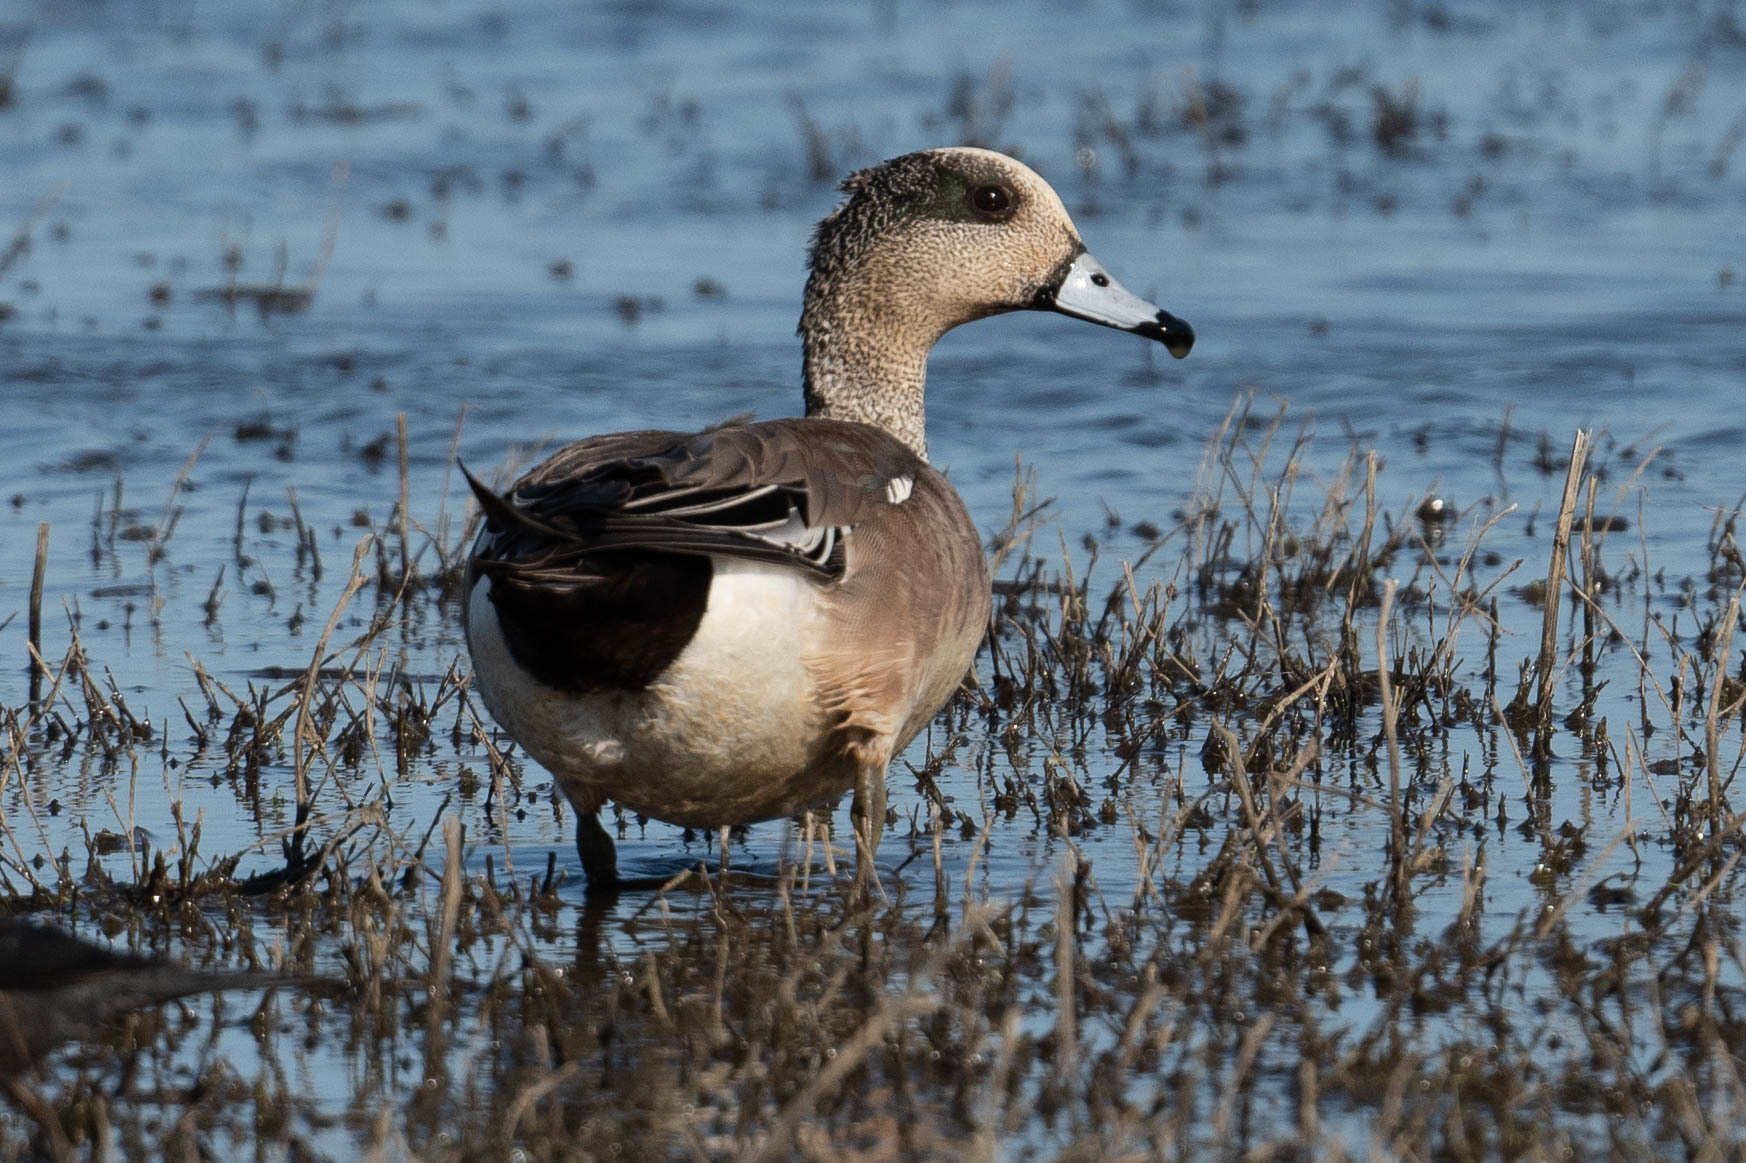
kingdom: Animalia
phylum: Chordata
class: Aves
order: Anseriformes
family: Anatidae
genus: Mareca
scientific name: Mareca americana
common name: American wigeon
